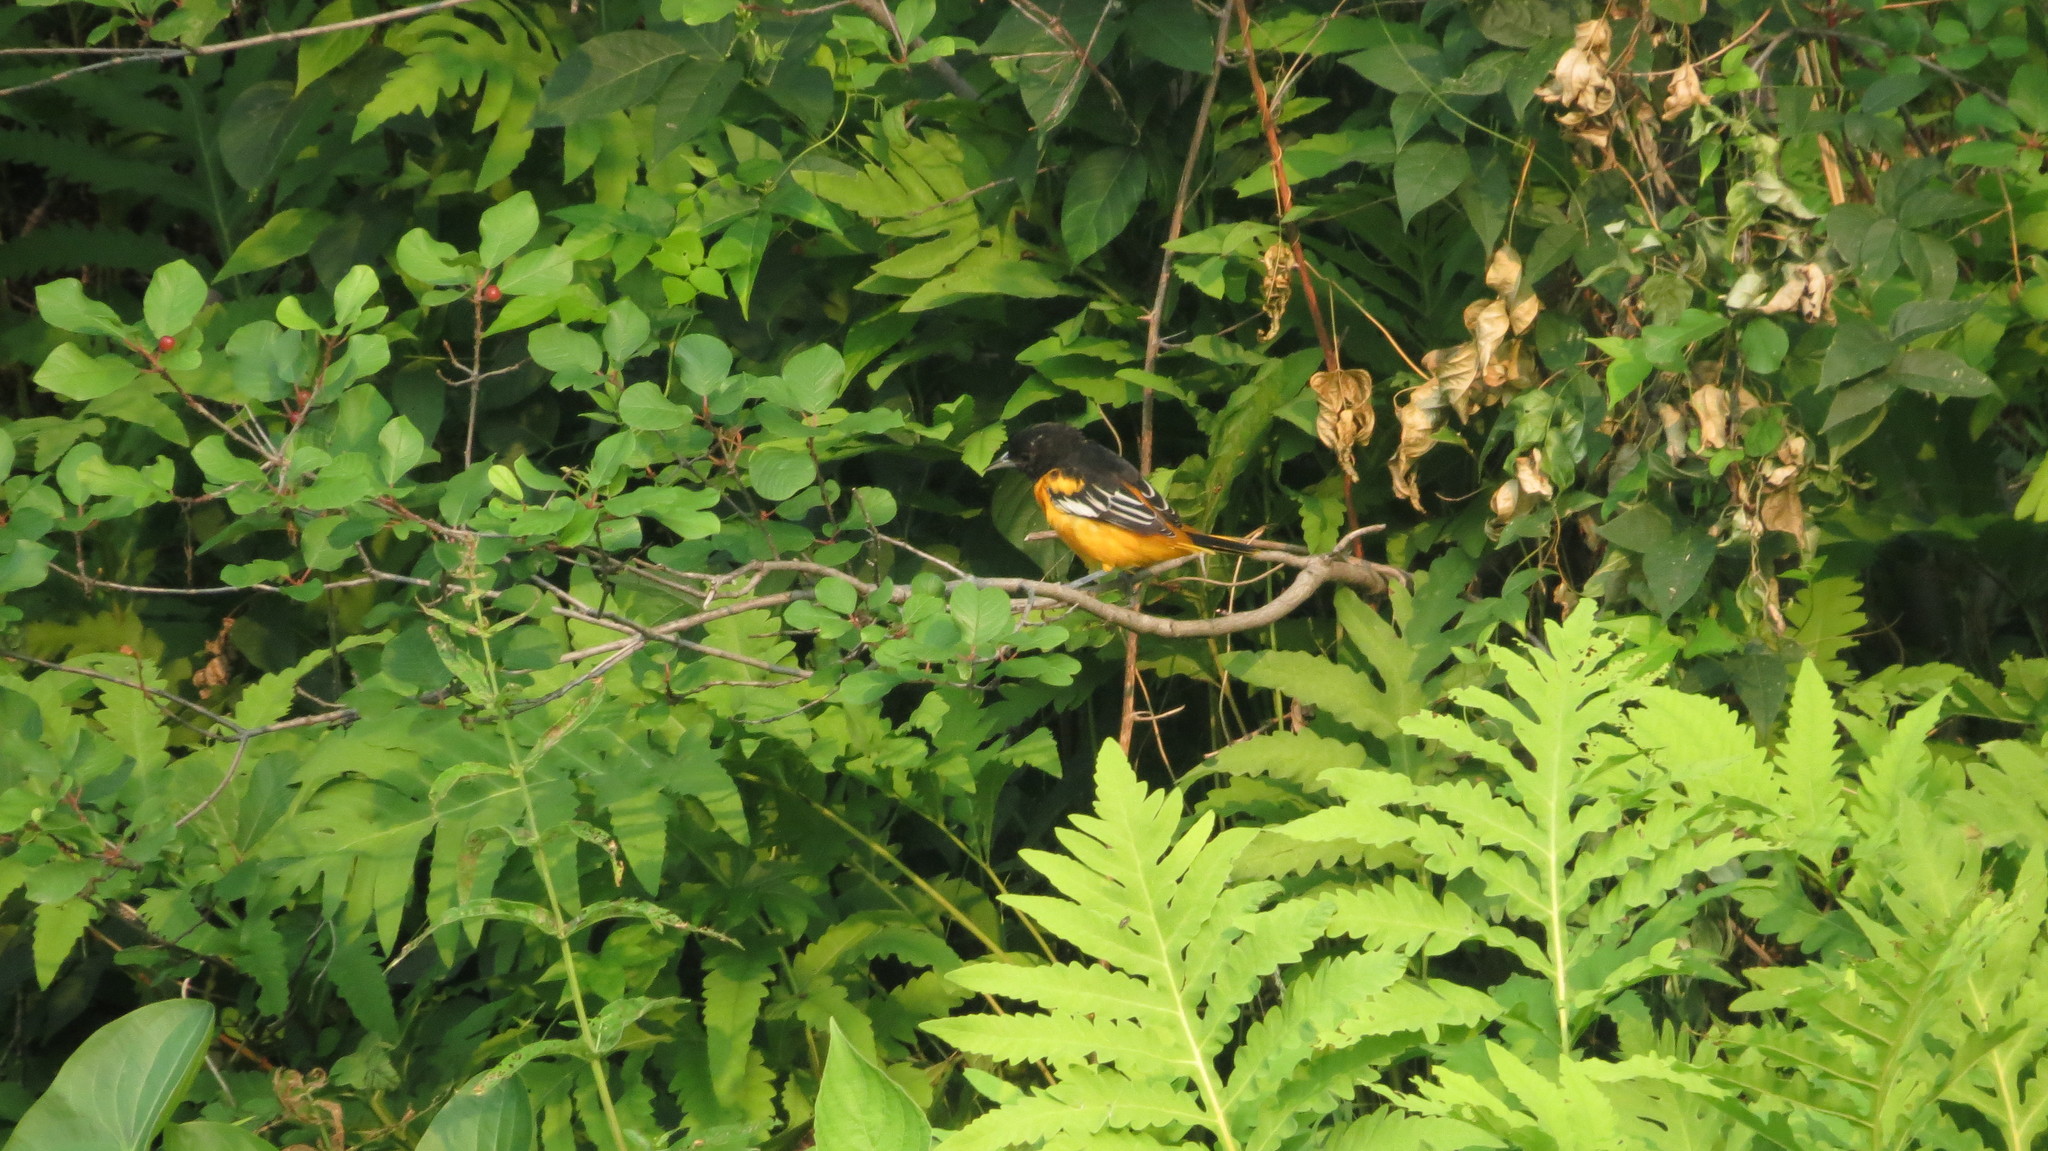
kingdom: Animalia
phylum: Chordata
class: Aves
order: Passeriformes
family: Icteridae
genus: Icterus
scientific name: Icterus galbula
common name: Baltimore oriole
